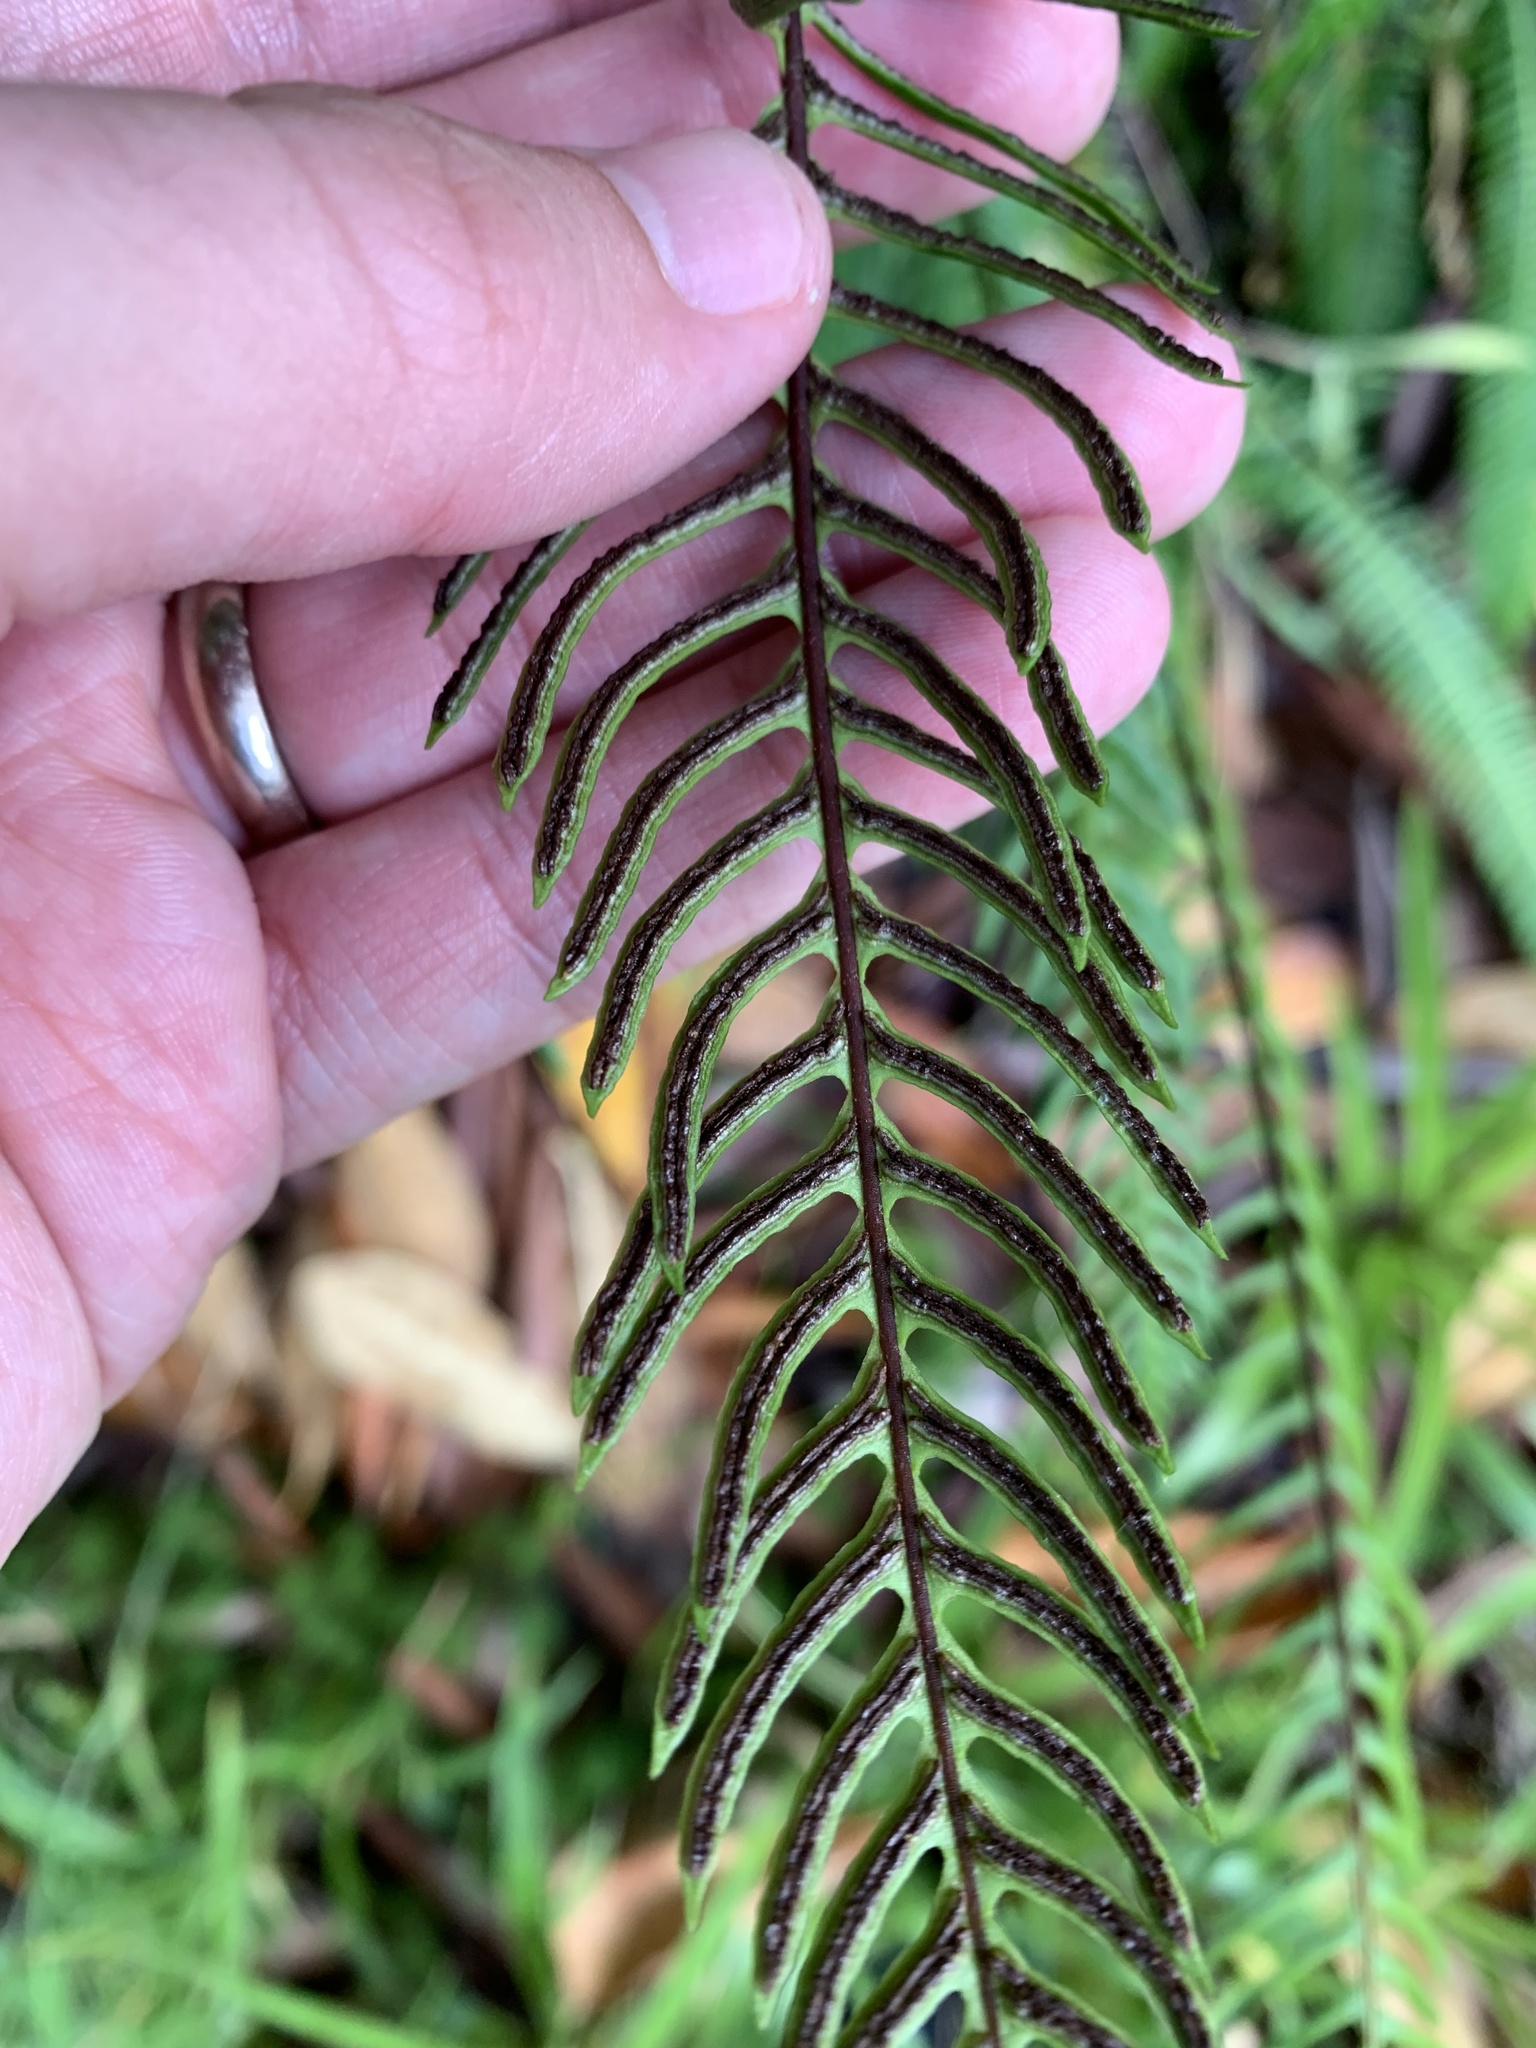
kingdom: Plantae
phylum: Tracheophyta
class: Polypodiopsida
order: Polypodiales
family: Blechnaceae
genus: Struthiopteris
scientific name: Struthiopteris spicant
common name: Deer fern
